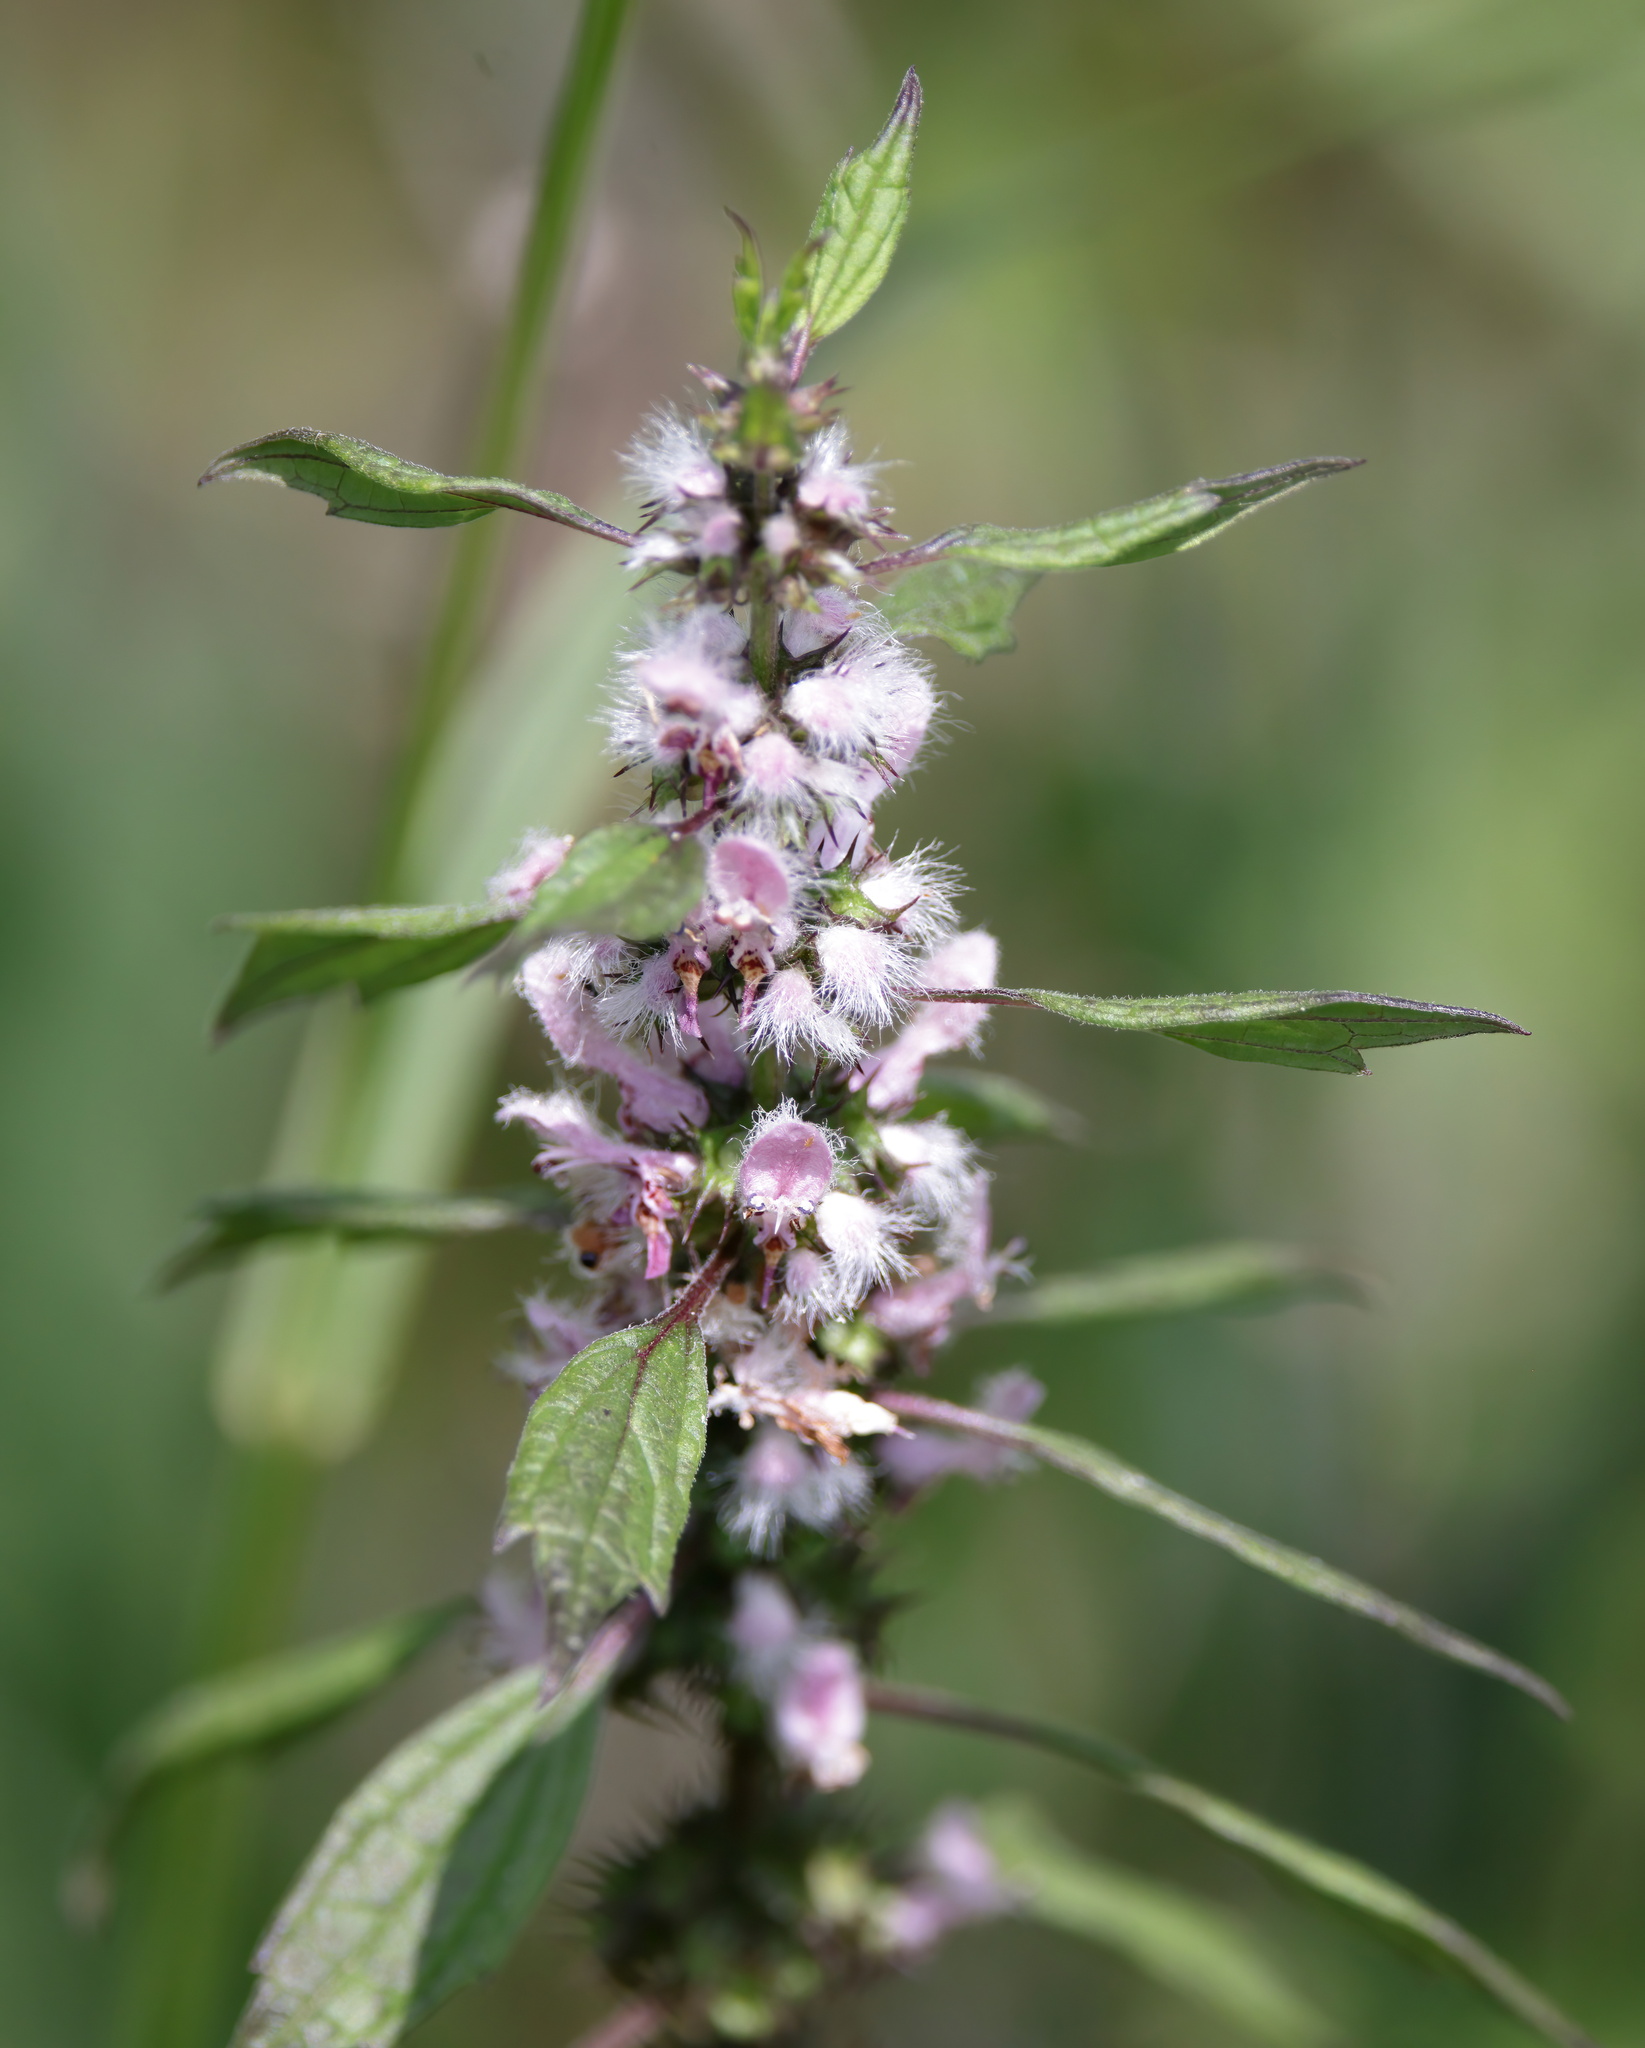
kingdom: Plantae
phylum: Tracheophyta
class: Magnoliopsida
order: Lamiales
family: Lamiaceae
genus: Leonurus
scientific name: Leonurus cardiaca
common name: Motherwort
